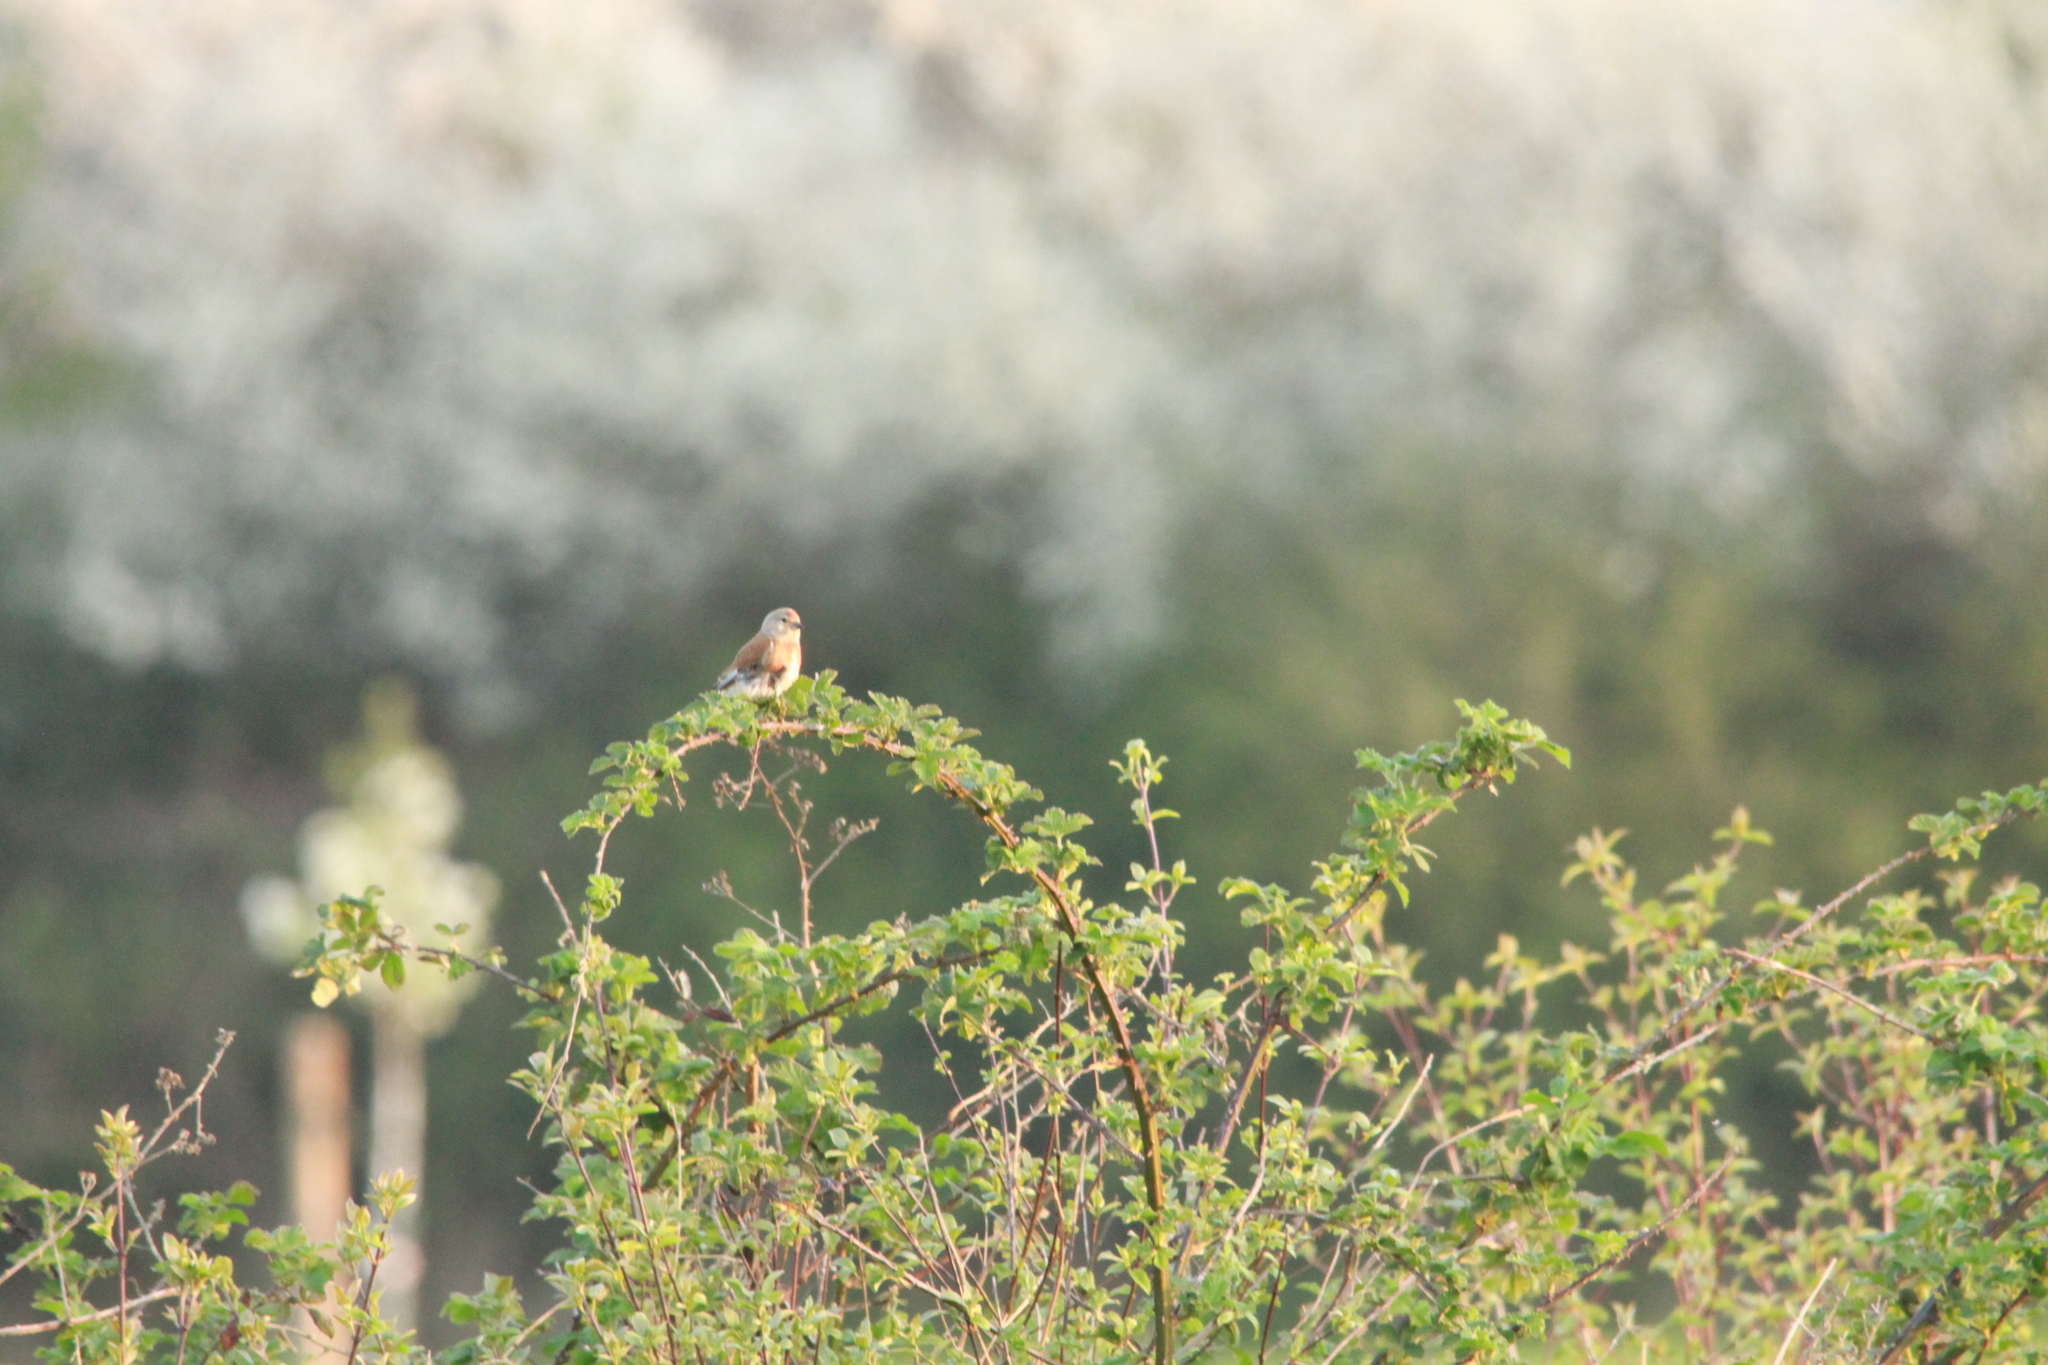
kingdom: Animalia
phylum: Chordata
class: Aves
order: Passeriformes
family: Fringillidae
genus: Linaria
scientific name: Linaria cannabina
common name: Common linnet
